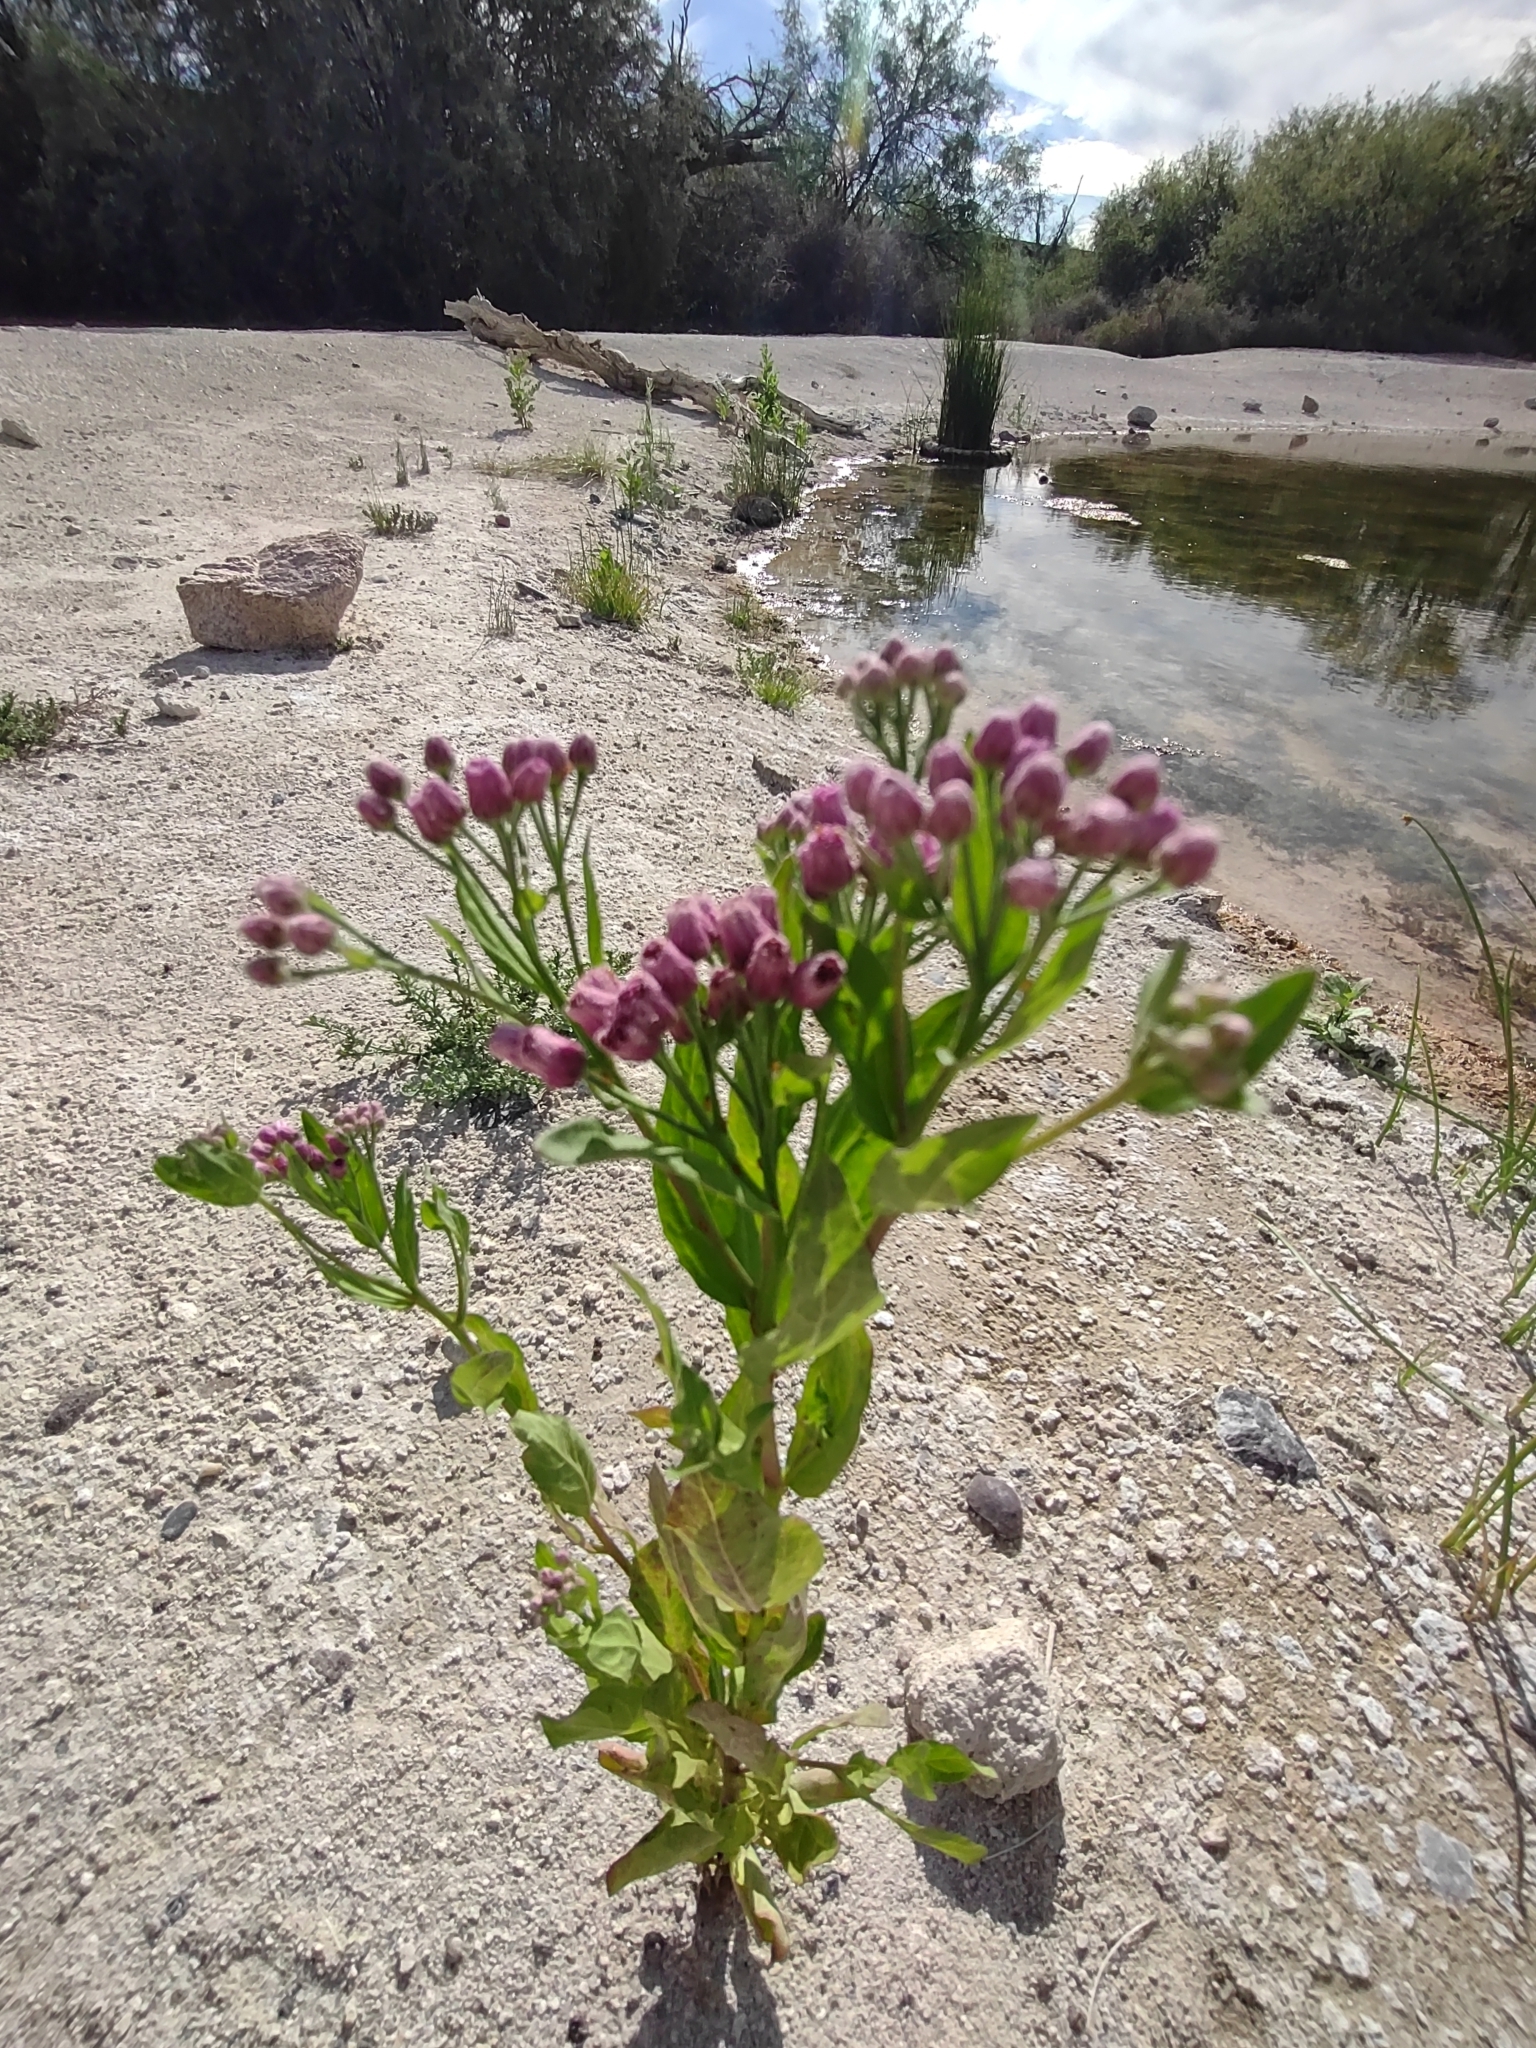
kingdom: Plantae
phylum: Tracheophyta
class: Magnoliopsida
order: Asterales
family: Asteraceae
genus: Pluchea
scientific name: Pluchea odorata
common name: Saltmarsh fleabane
